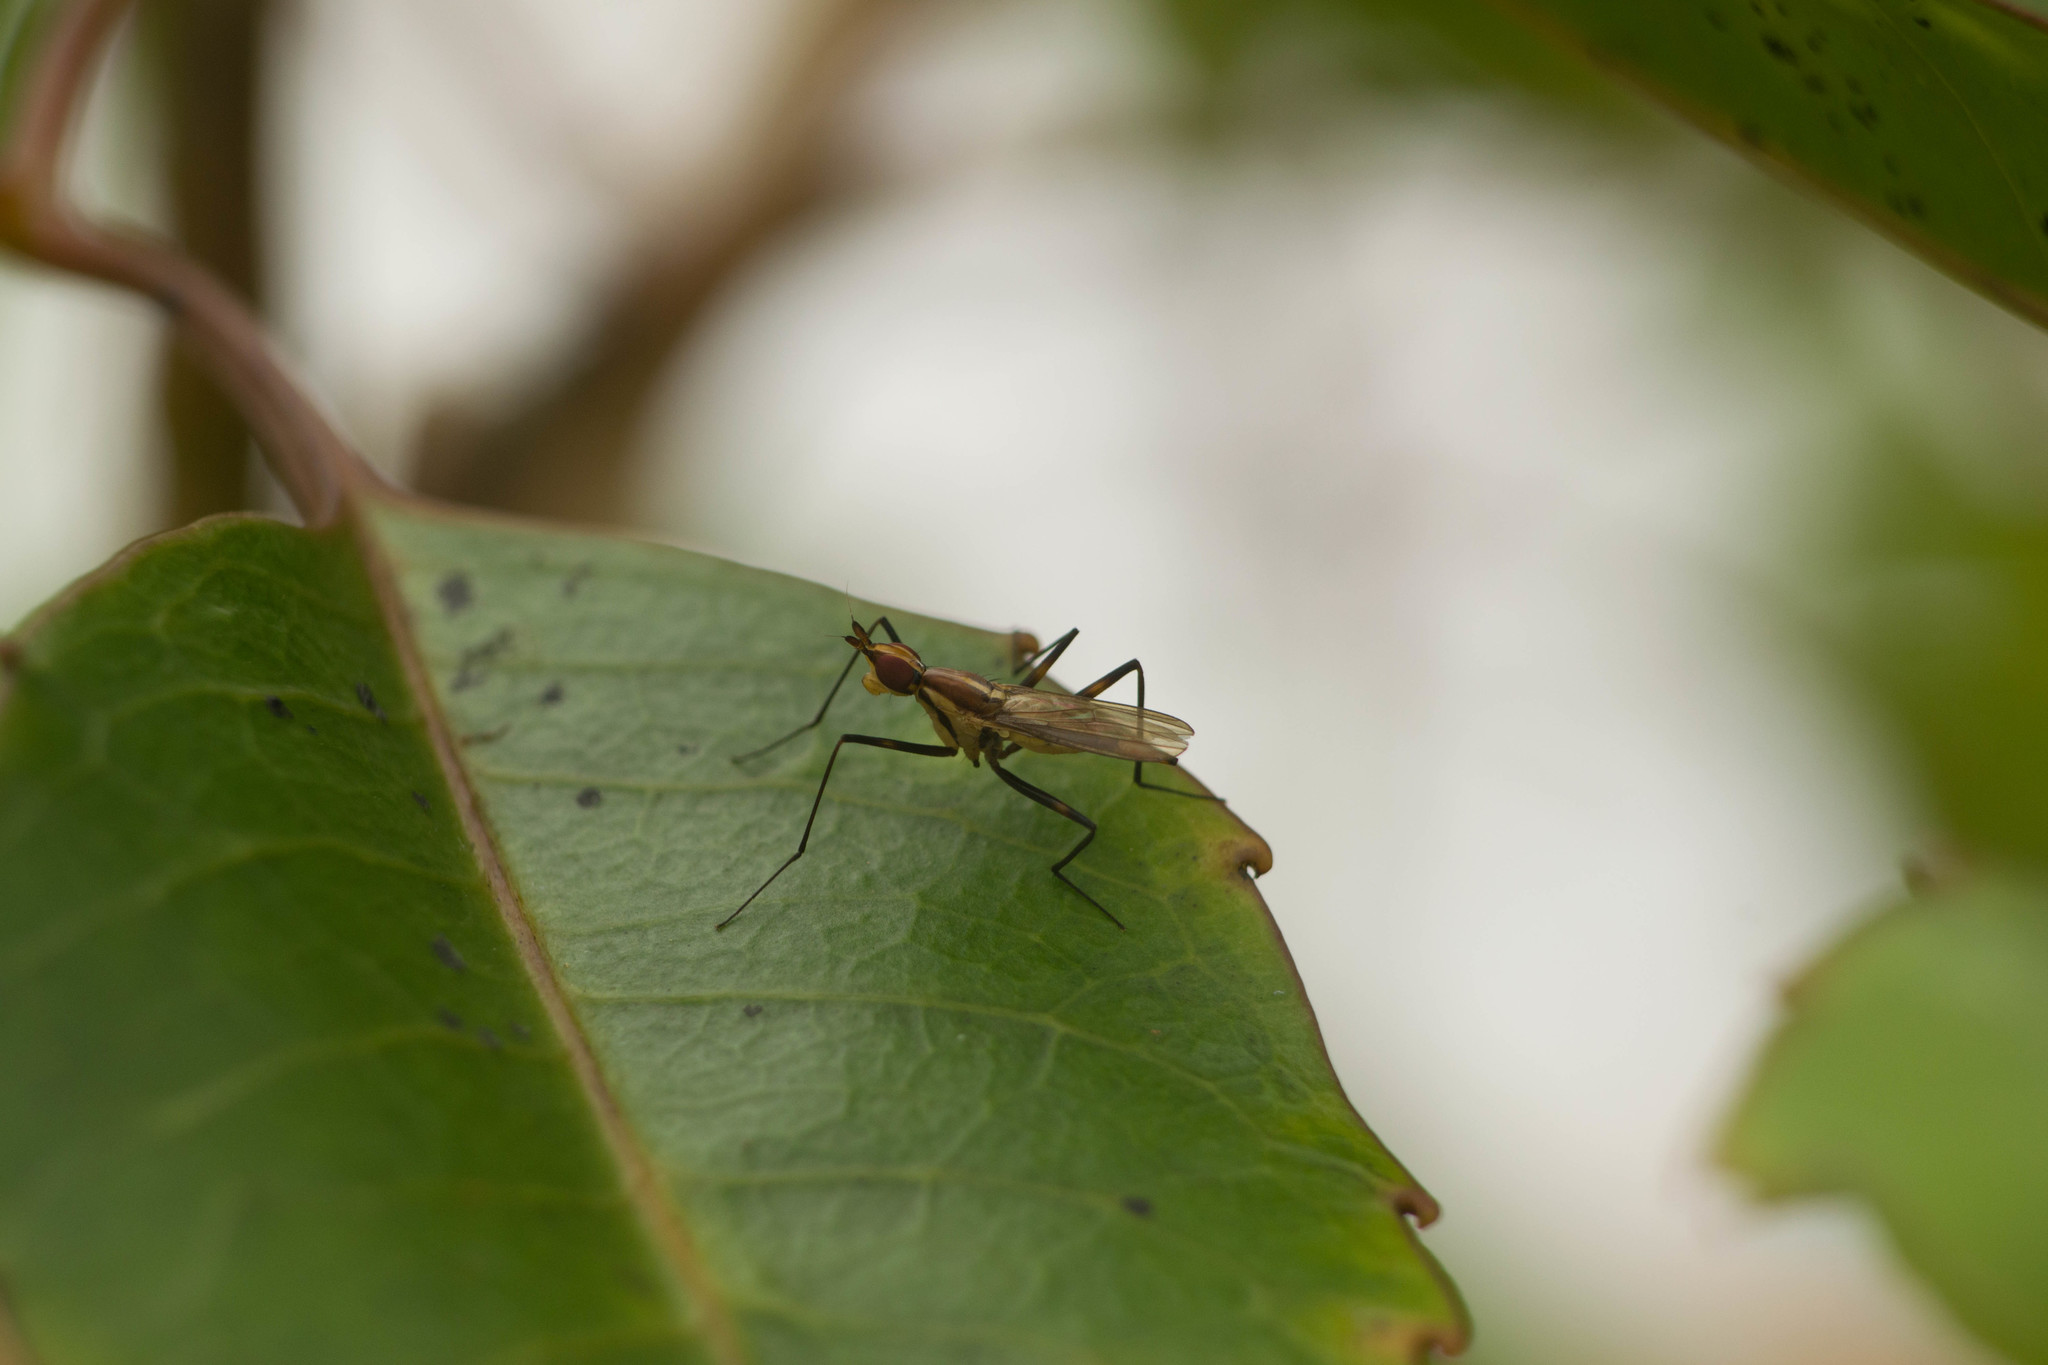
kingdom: Animalia
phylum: Arthropoda
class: Insecta
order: Diptera
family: Neriidae
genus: Telostylinus
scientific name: Telostylinus lineolatus
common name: Banana stalk fly
